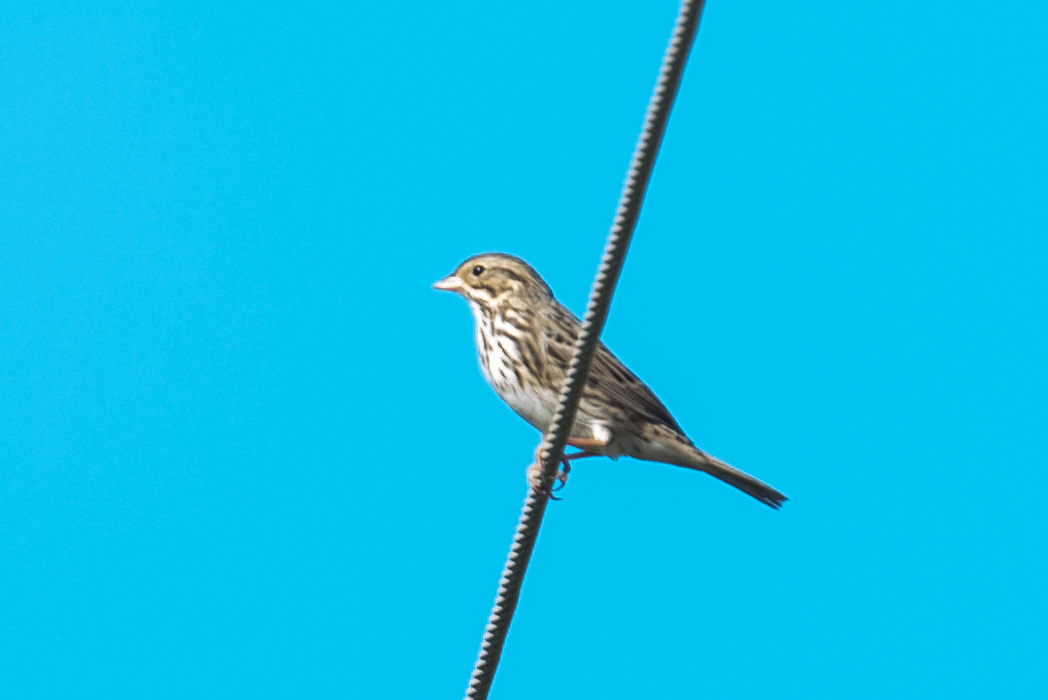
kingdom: Animalia
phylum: Chordata
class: Aves
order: Passeriformes
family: Passerellidae
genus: Passerculus
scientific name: Passerculus sandwichensis
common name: Savannah sparrow
